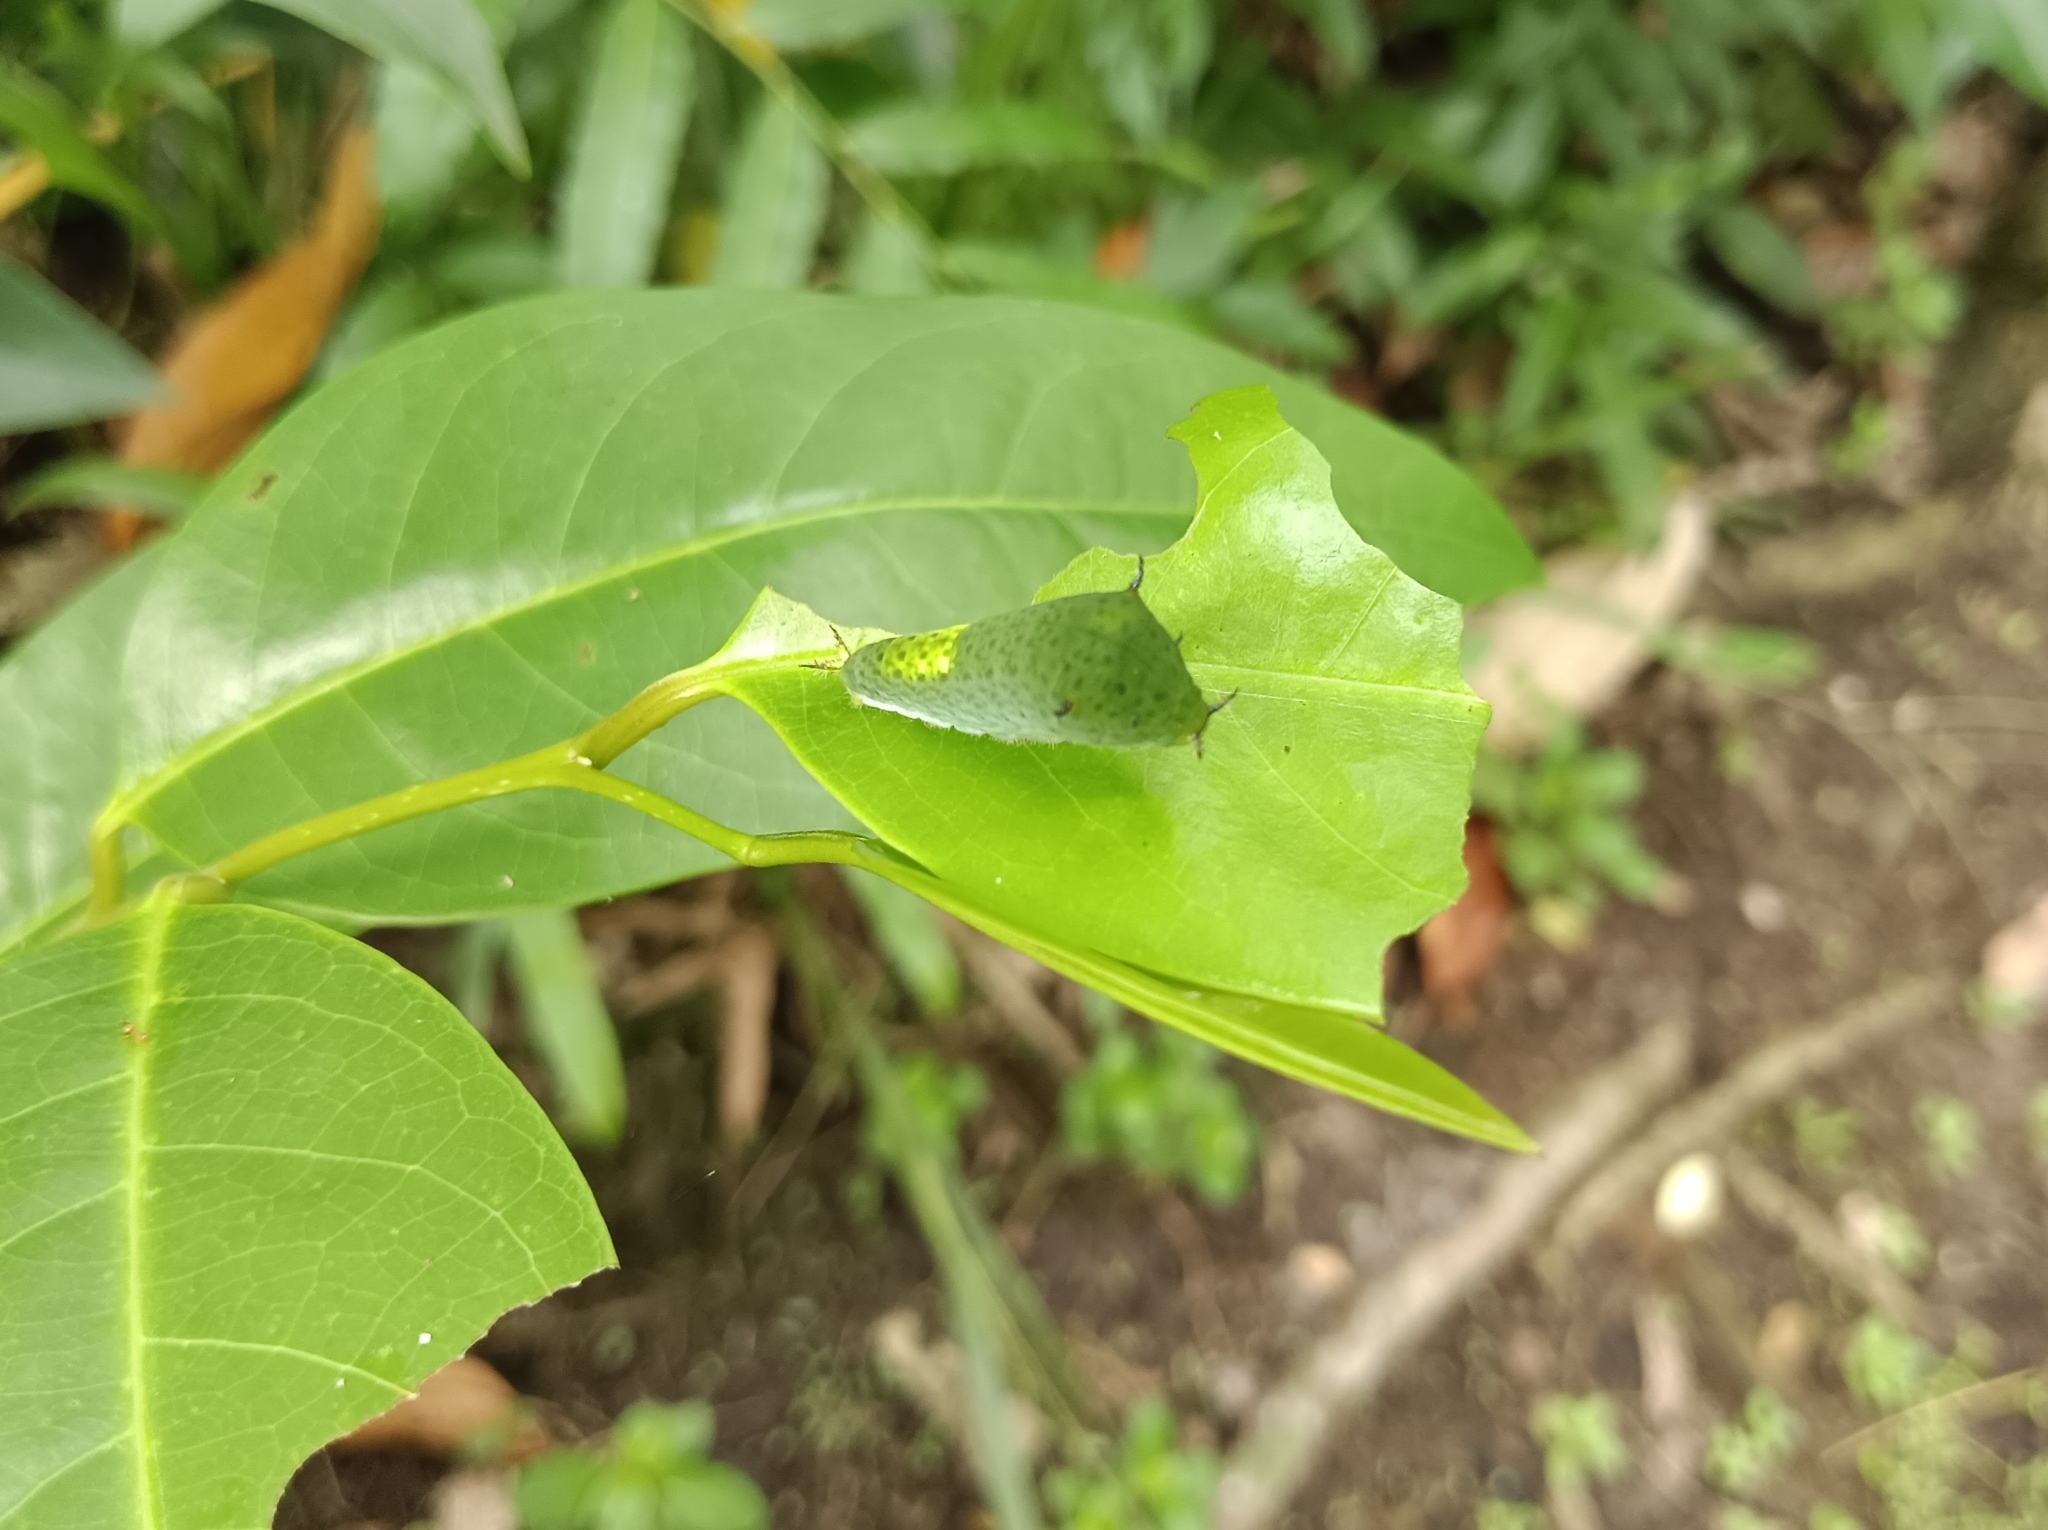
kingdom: Animalia
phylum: Arthropoda
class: Insecta
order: Lepidoptera
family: Papilionidae
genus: Graphium
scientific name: Graphium agamemnon
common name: Tailed jay
